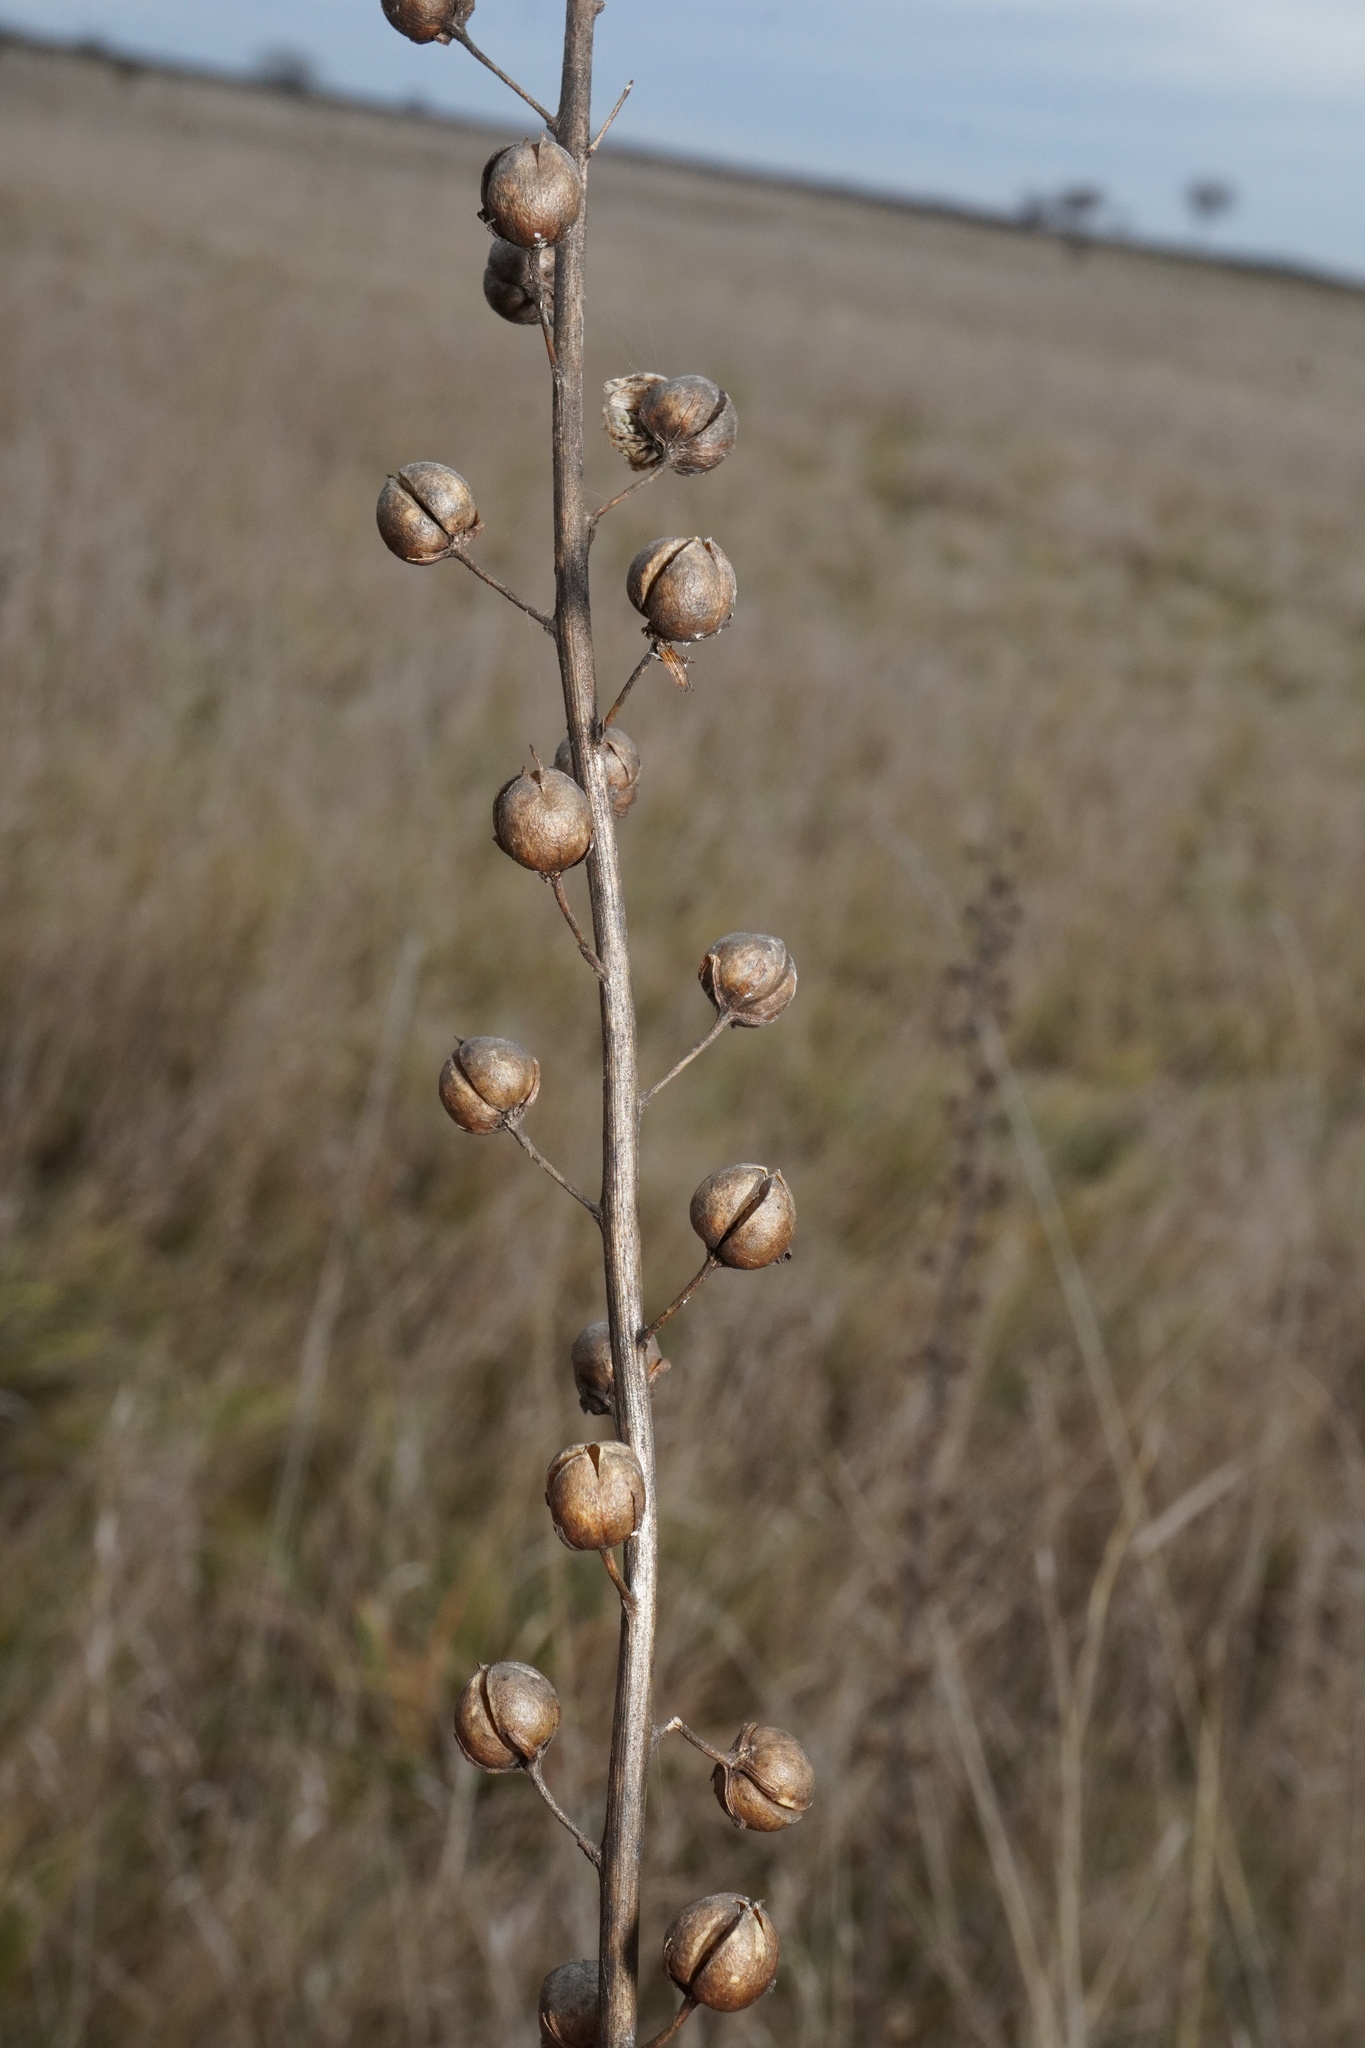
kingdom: Plantae
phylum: Tracheophyta
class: Magnoliopsida
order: Lamiales
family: Scrophulariaceae
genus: Verbascum
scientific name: Verbascum blattaria
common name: Moth mullein
